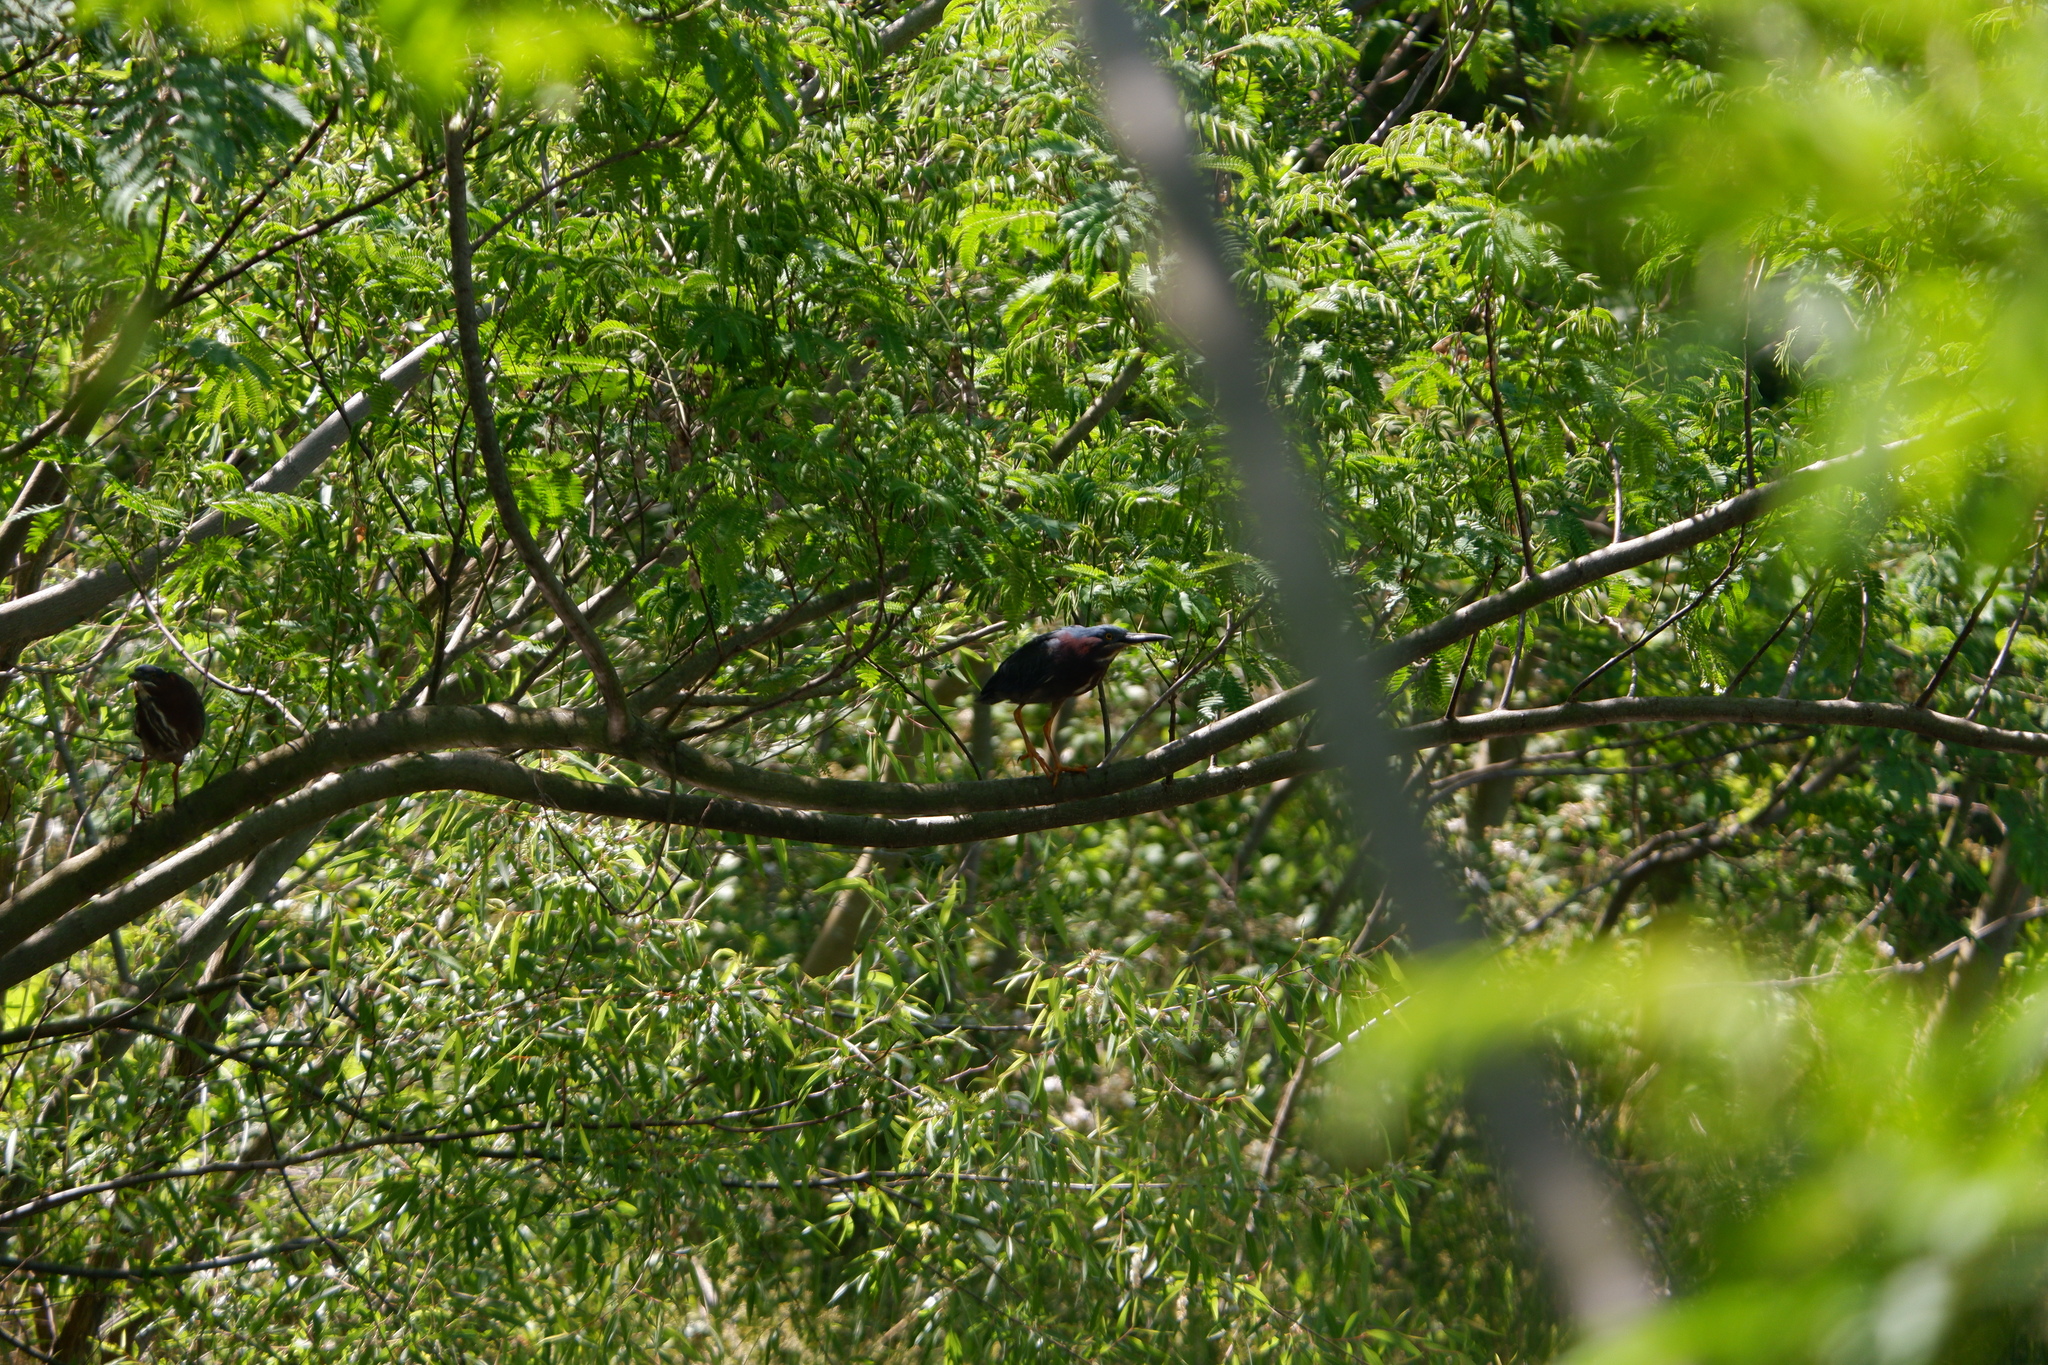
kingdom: Animalia
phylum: Chordata
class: Aves
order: Pelecaniformes
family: Ardeidae
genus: Butorides
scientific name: Butorides virescens
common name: Green heron
